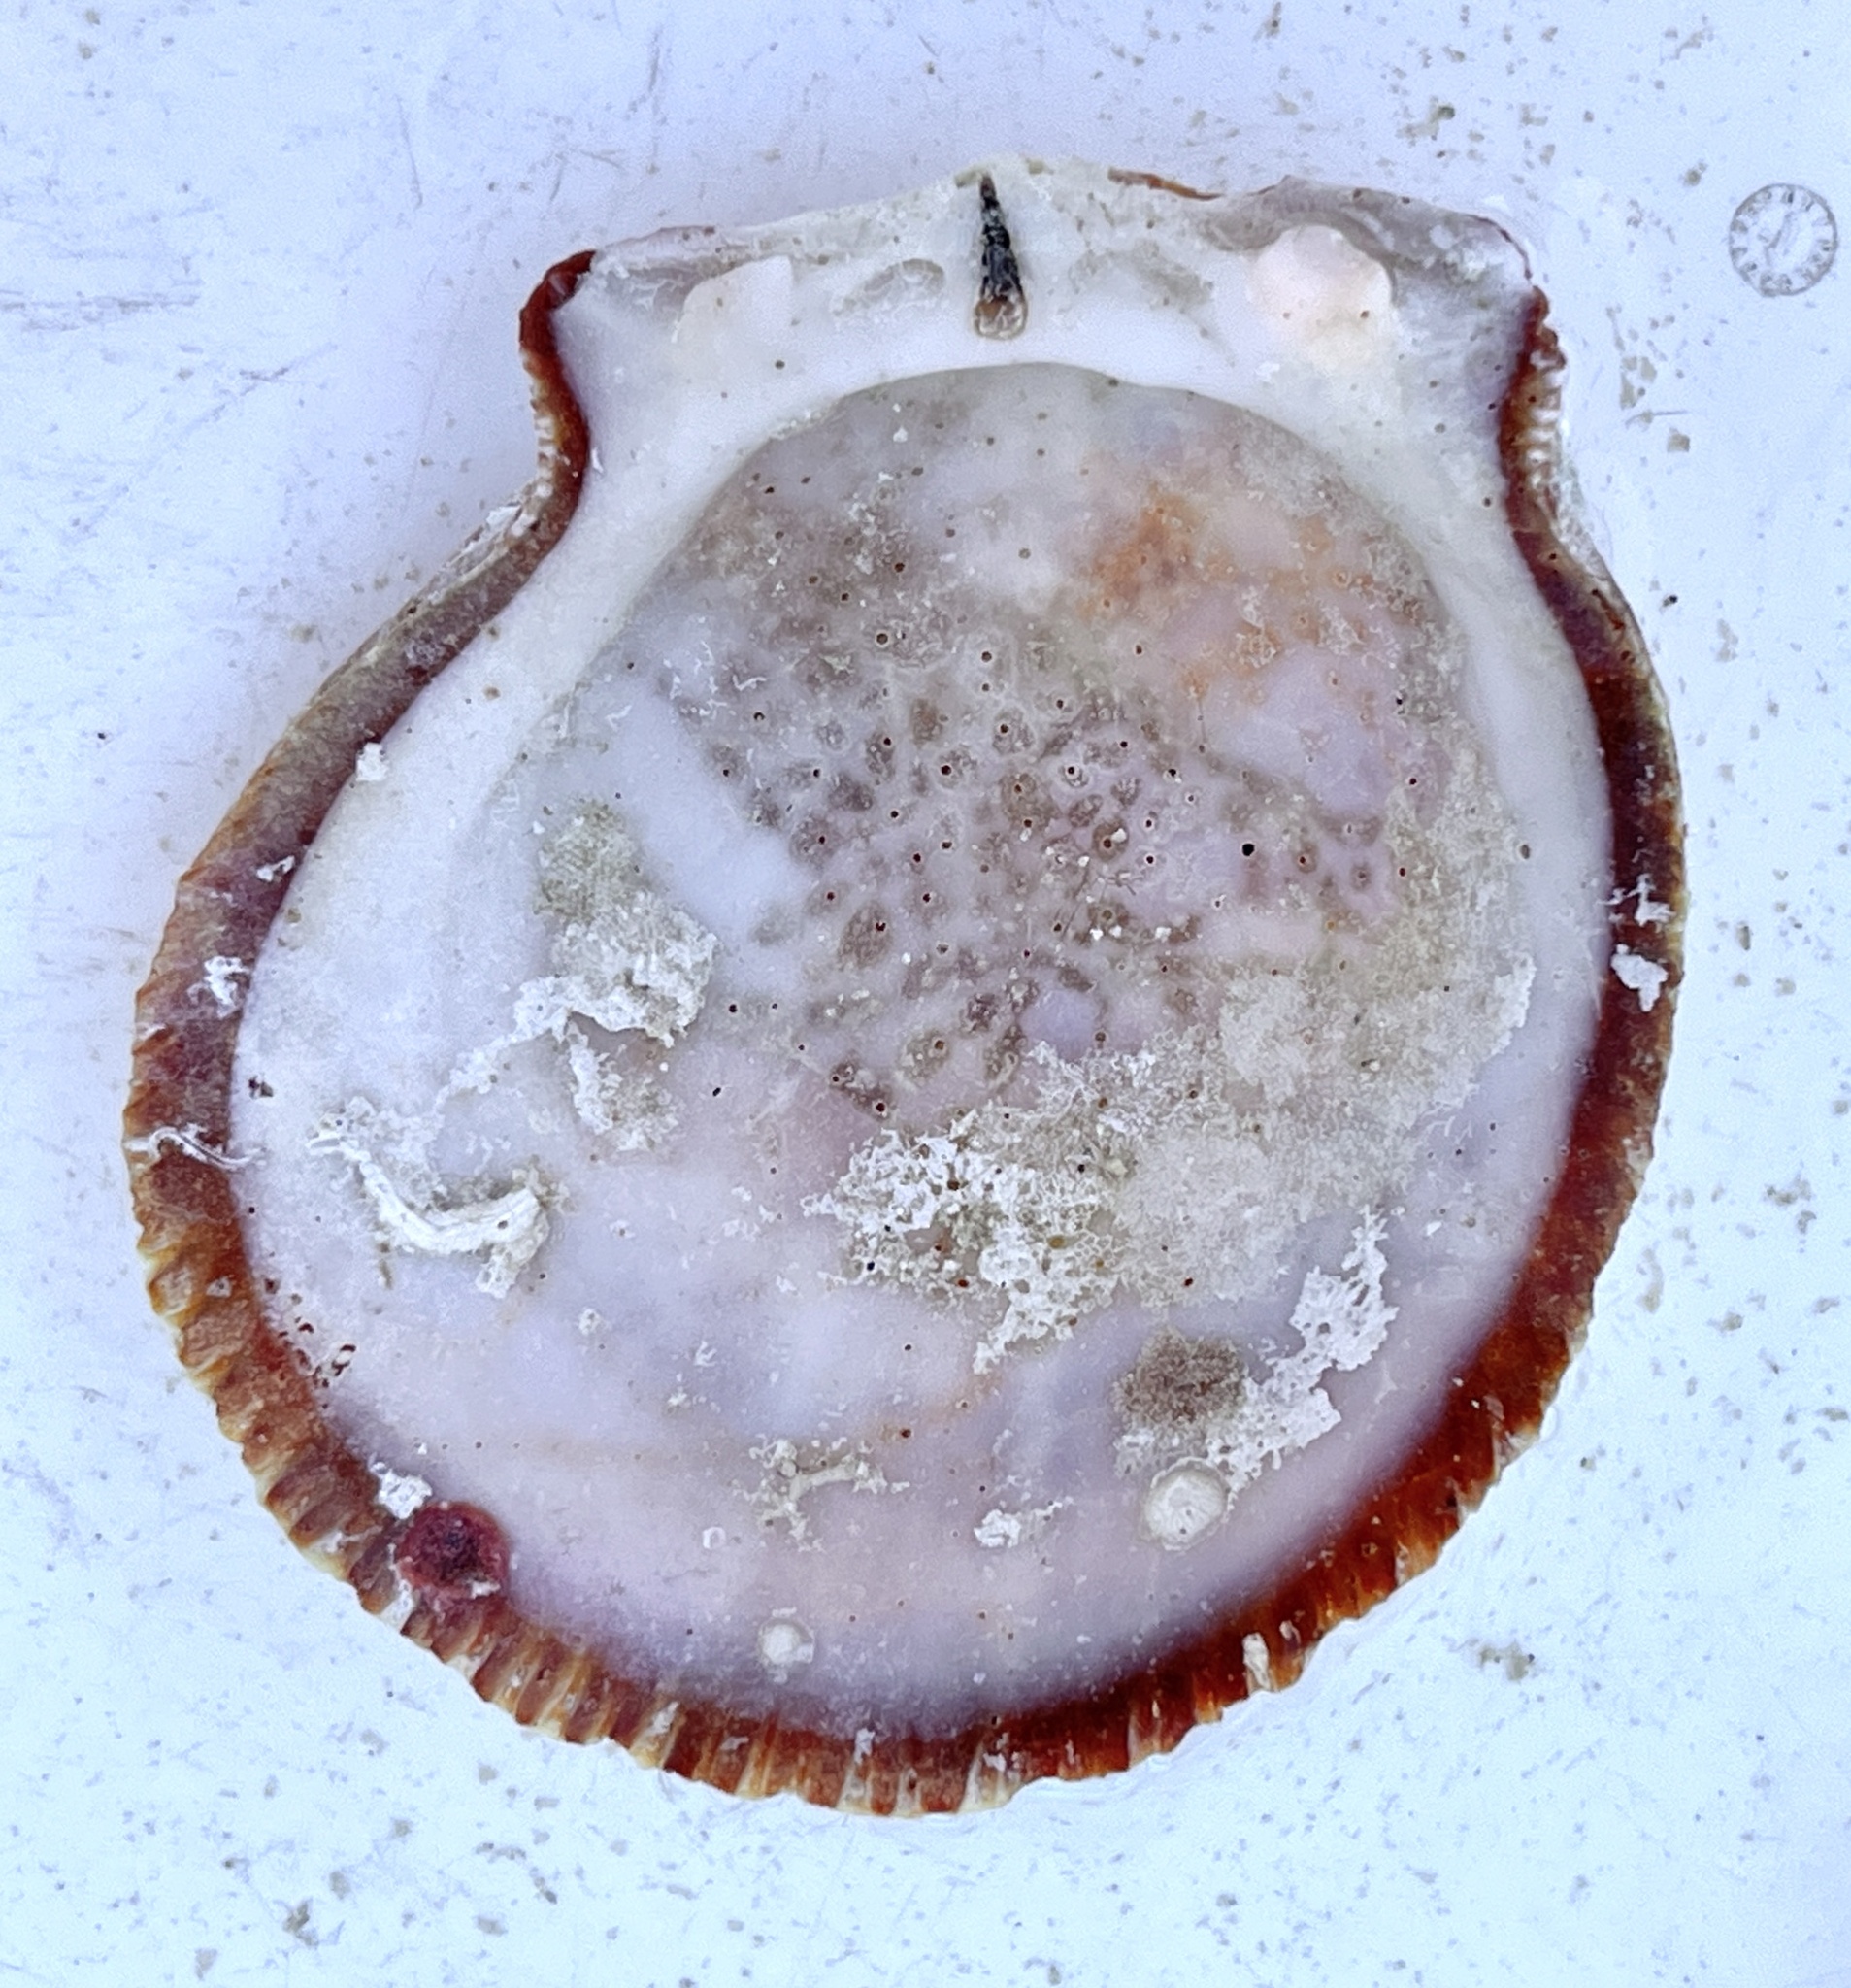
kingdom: Animalia
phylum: Mollusca
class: Bivalvia
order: Pectinida
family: Spondylidae
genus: Spondylus
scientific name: Spondylus tenuis
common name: Digitate thorny oyster
